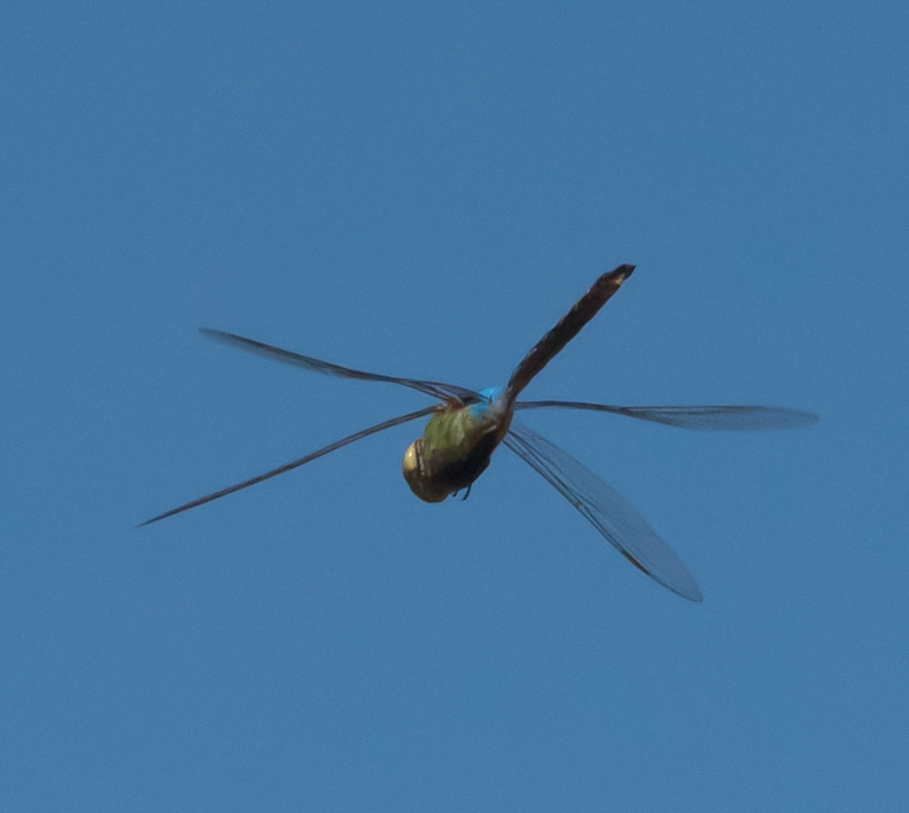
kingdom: Animalia
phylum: Arthropoda
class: Insecta
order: Odonata
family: Aeshnidae
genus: Anax
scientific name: Anax junius
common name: Common green darner
